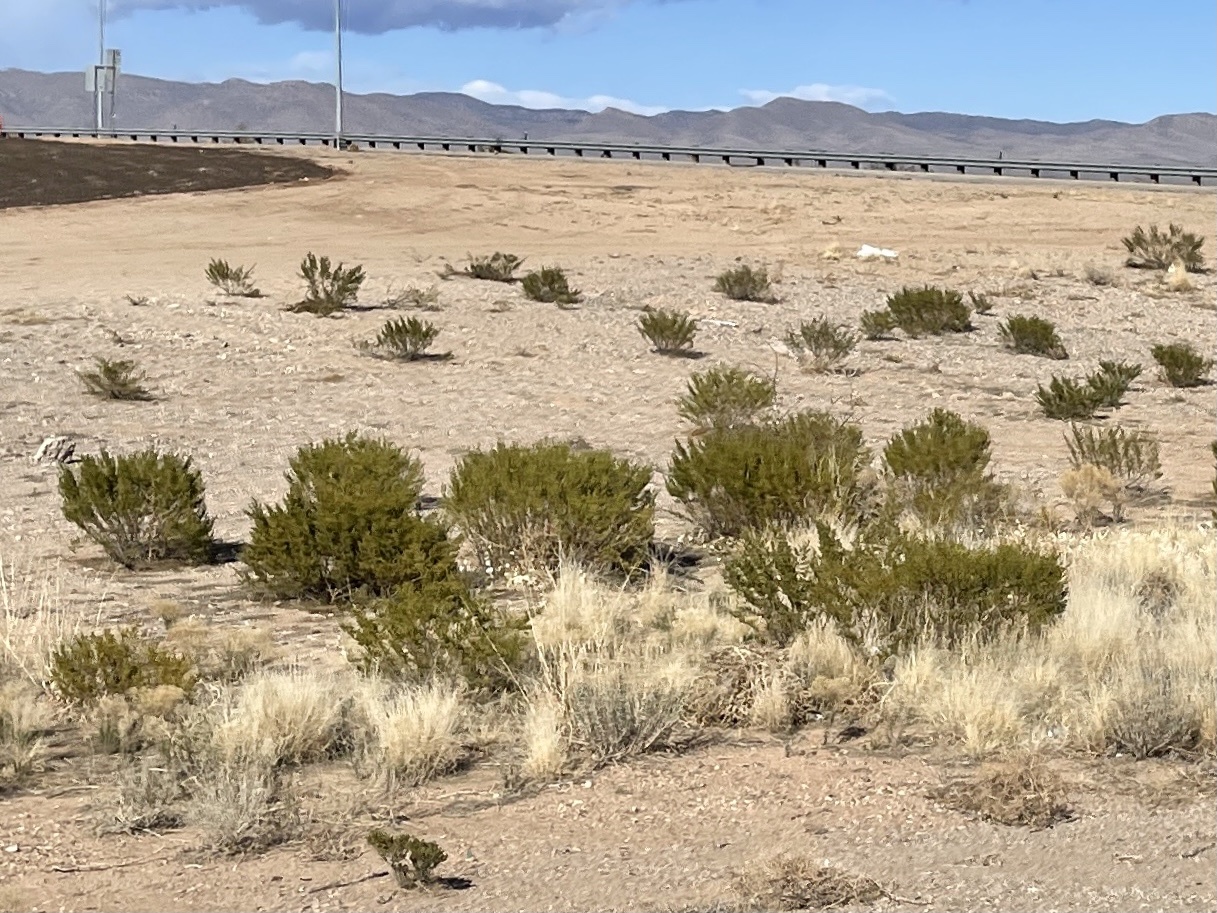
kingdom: Plantae
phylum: Tracheophyta
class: Magnoliopsida
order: Zygophyllales
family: Zygophyllaceae
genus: Larrea
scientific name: Larrea tridentata
